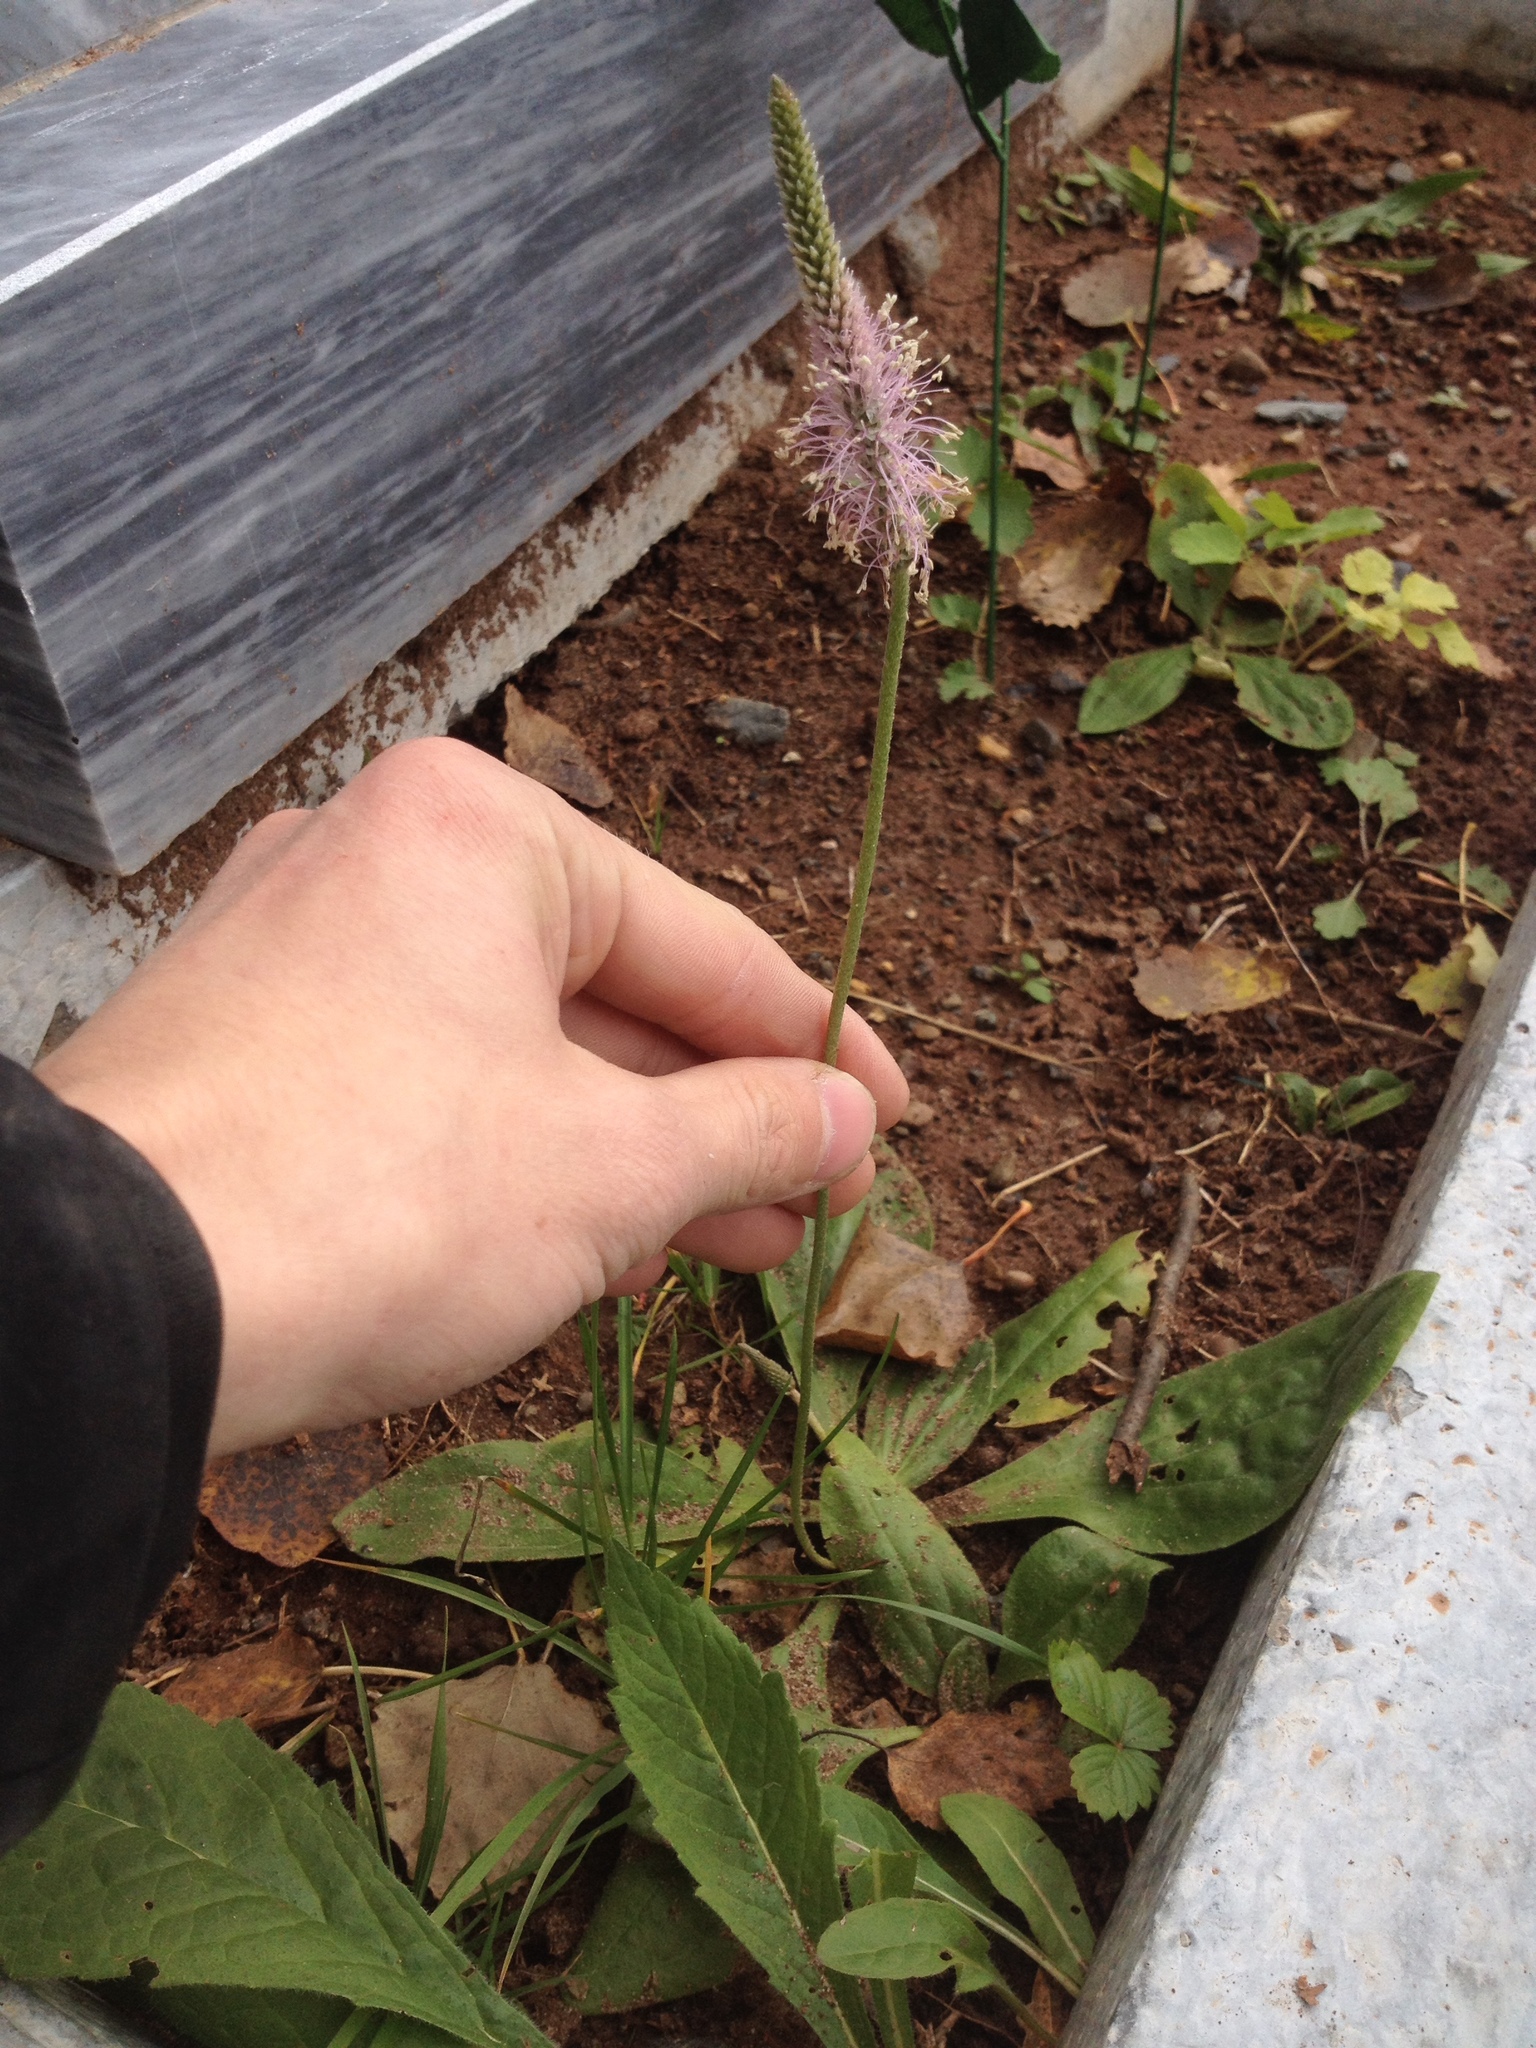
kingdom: Plantae
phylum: Tracheophyta
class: Magnoliopsida
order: Lamiales
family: Plantaginaceae
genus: Plantago
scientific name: Plantago media
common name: Hoary plantain
